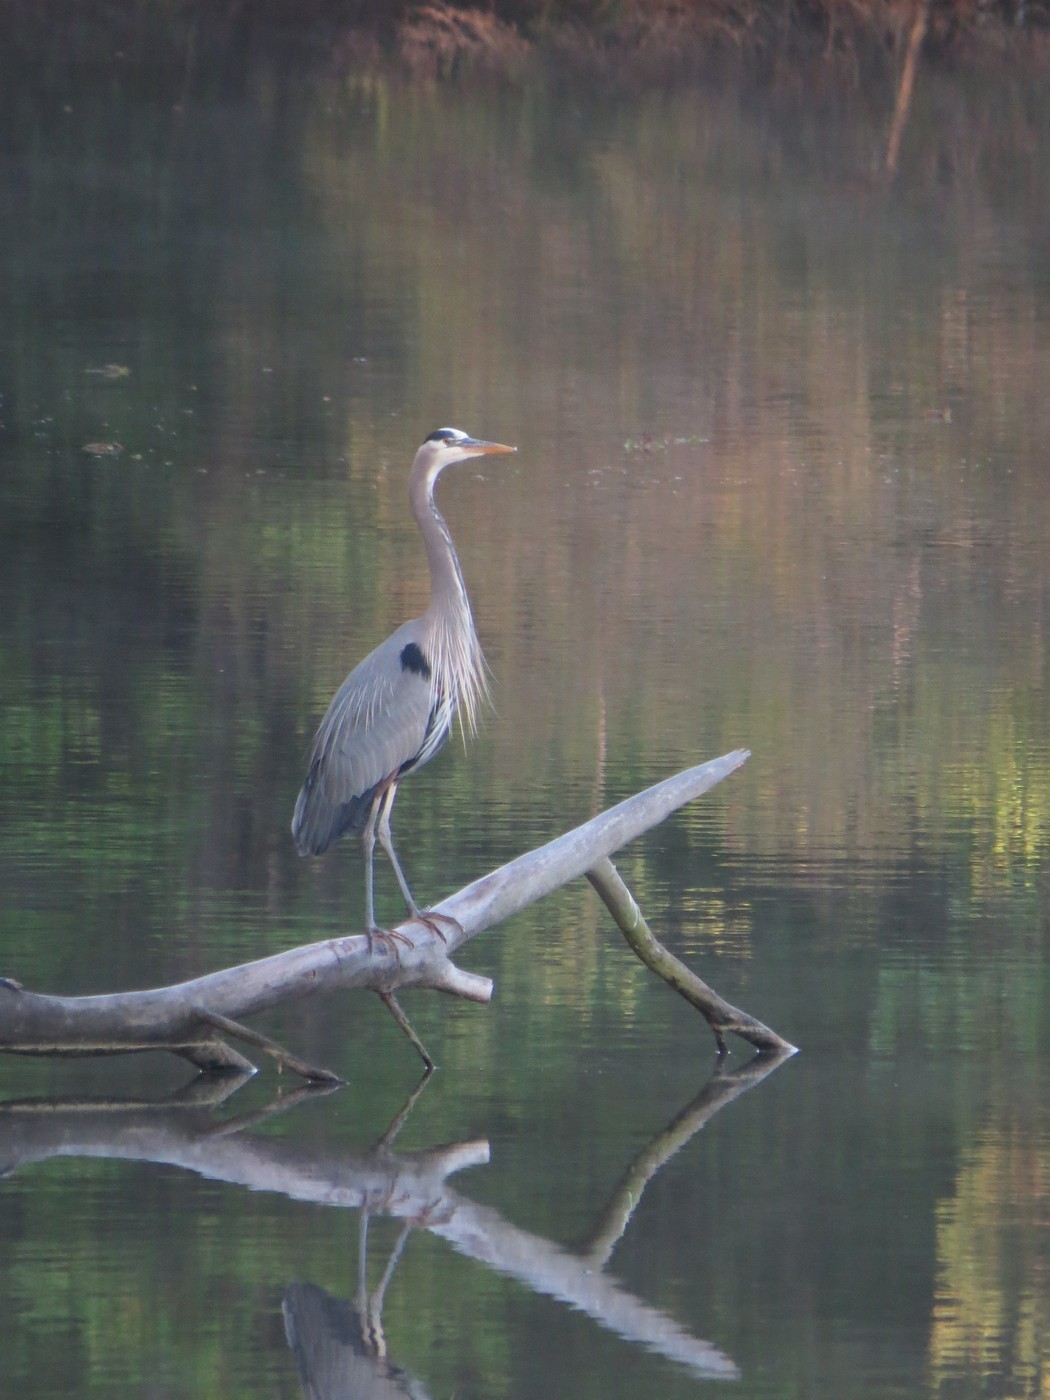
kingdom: Animalia
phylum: Chordata
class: Aves
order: Pelecaniformes
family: Ardeidae
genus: Ardea
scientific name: Ardea herodias
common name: Great blue heron
